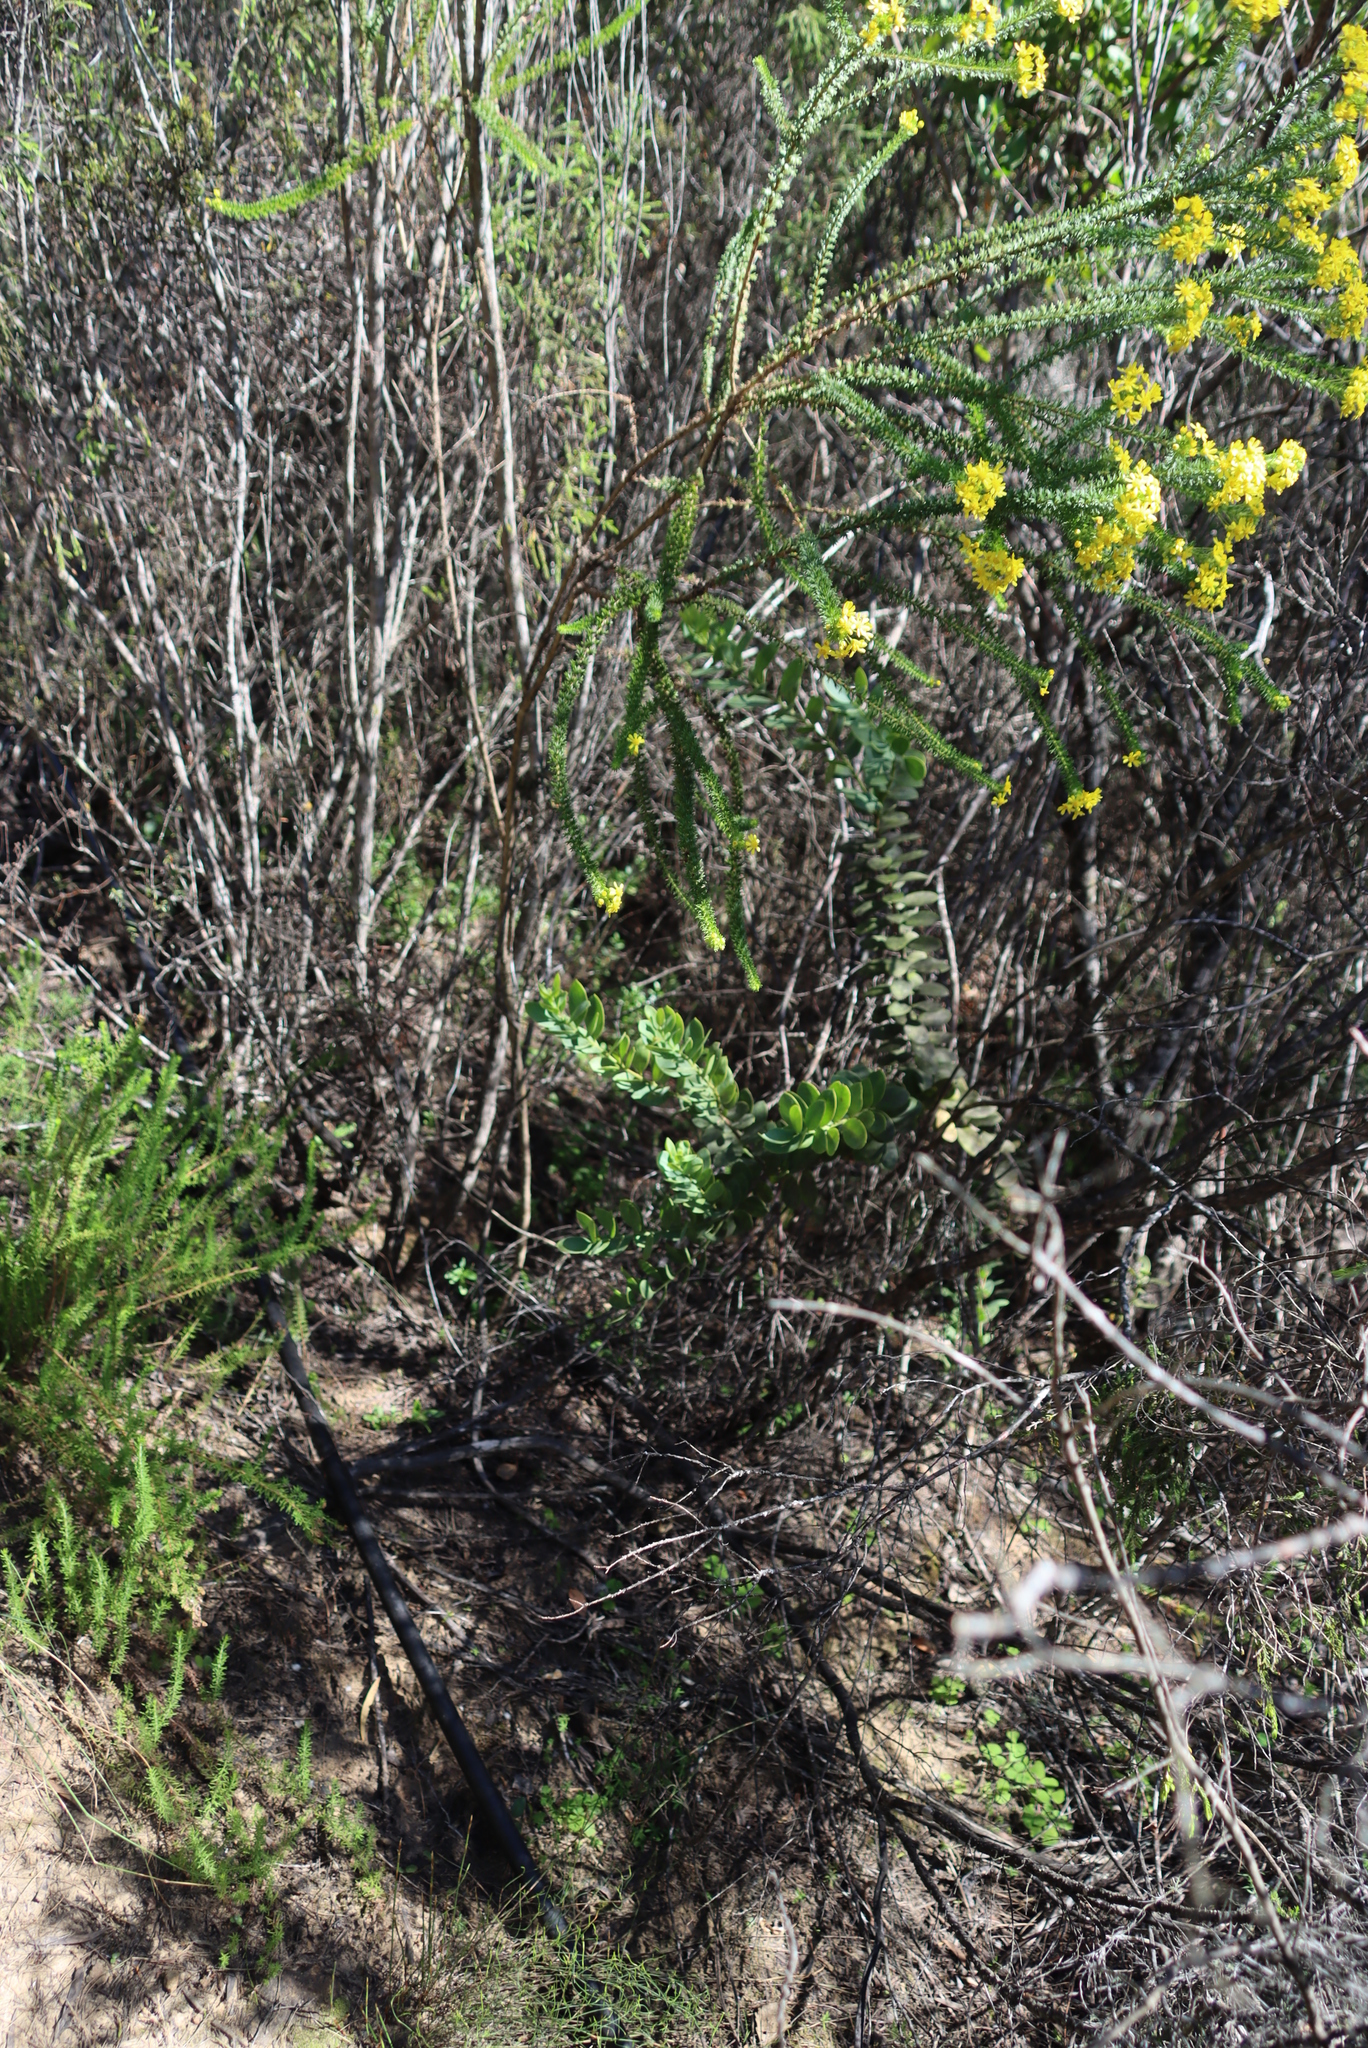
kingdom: Plantae
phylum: Tracheophyta
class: Magnoliopsida
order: Santalales
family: Santalaceae
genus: Osyris
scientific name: Osyris compressa
